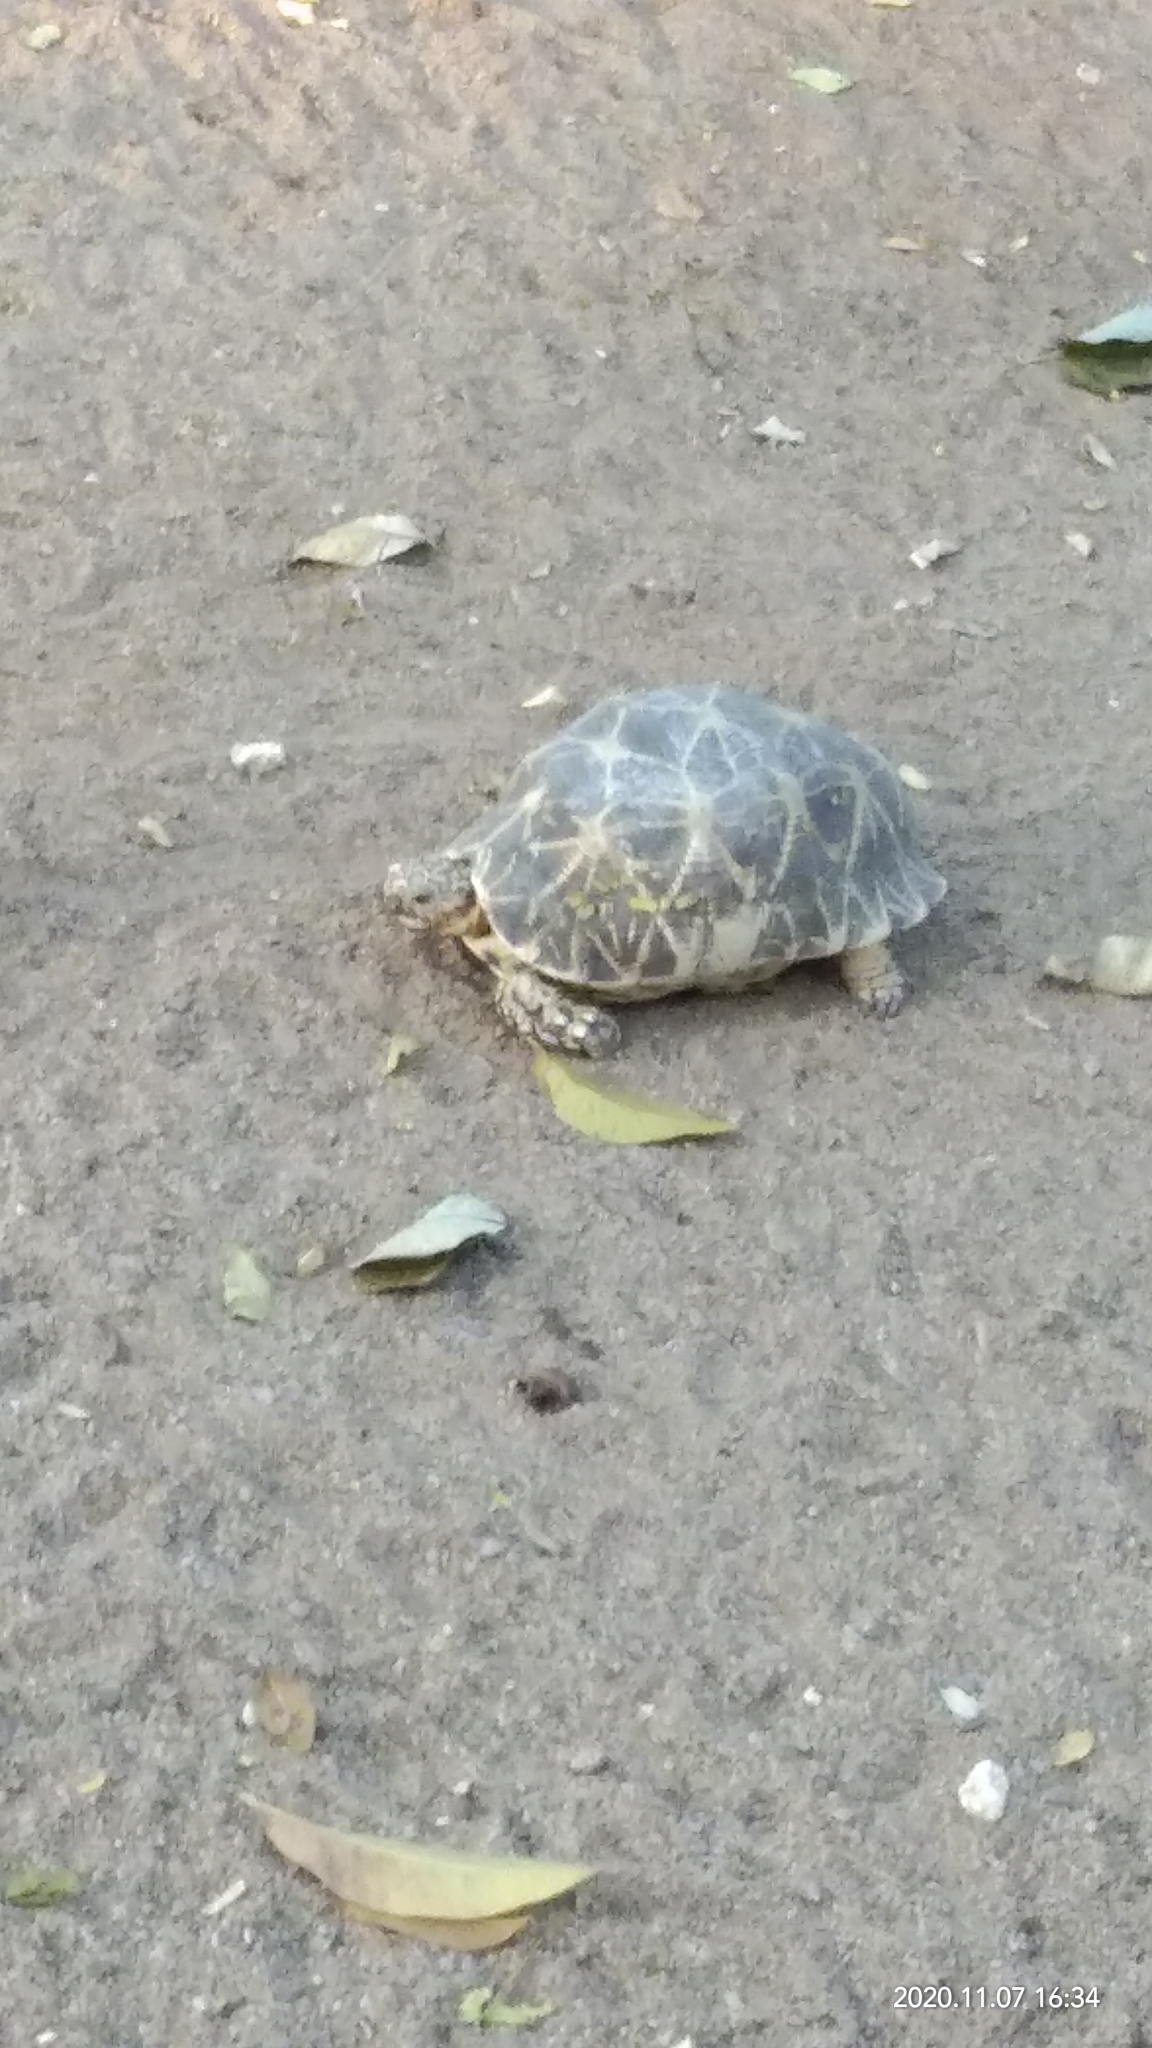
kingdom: Animalia
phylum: Chordata
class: Testudines
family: Testudinidae
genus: Geochelone
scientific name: Geochelone elegans
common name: Indian star tortoise
